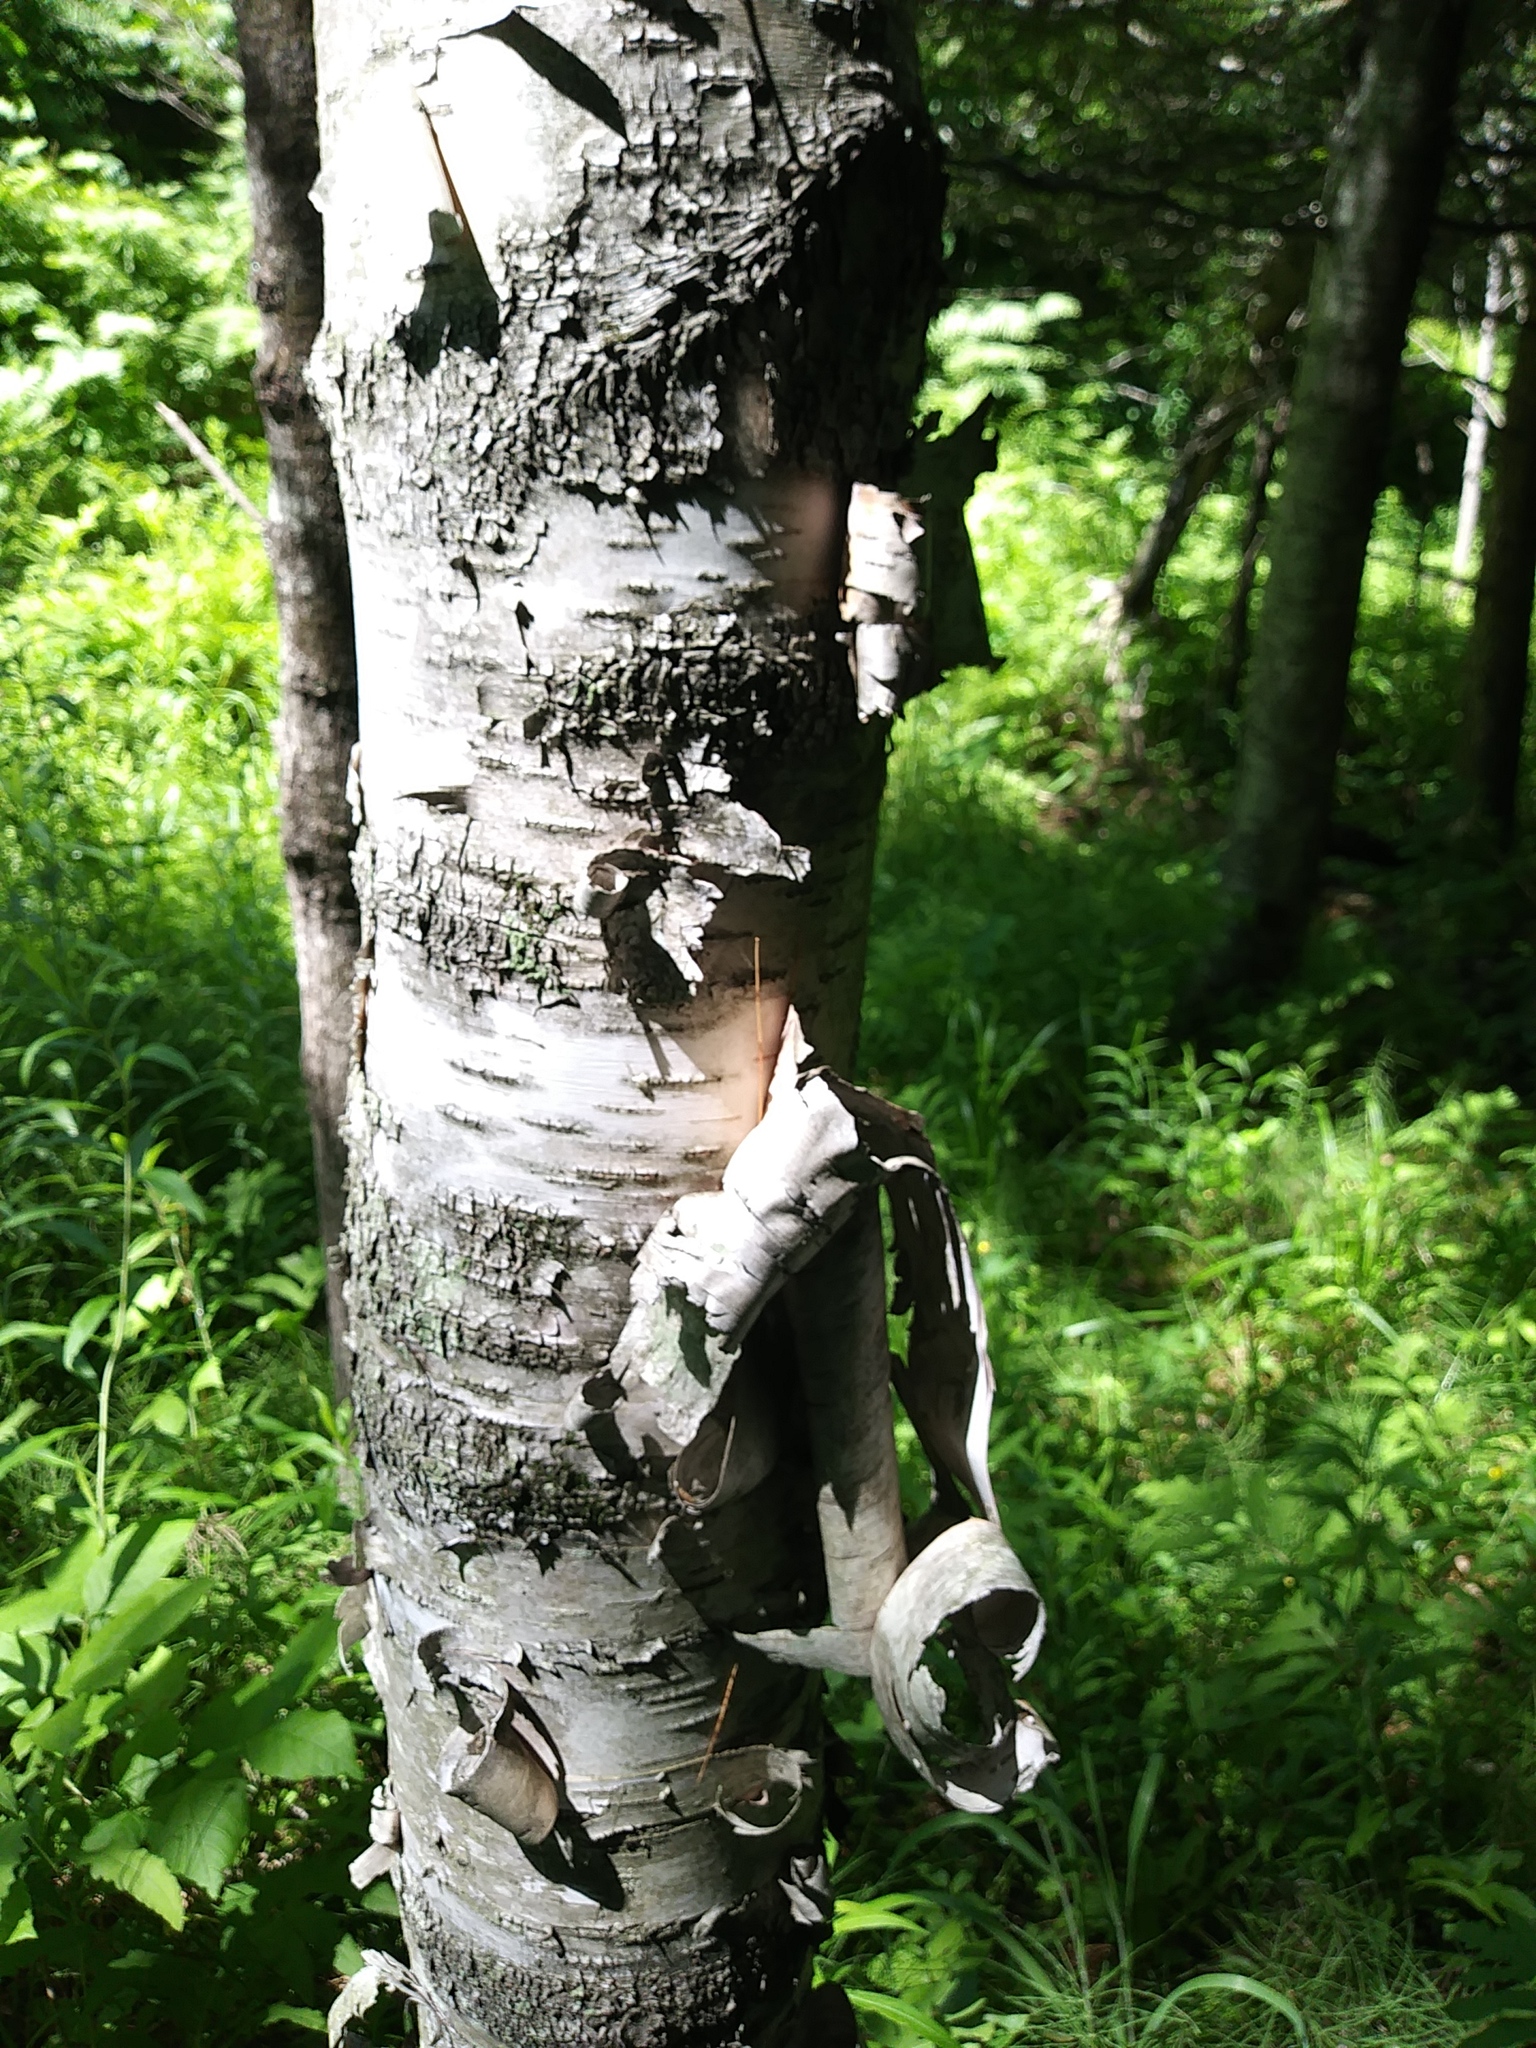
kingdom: Plantae
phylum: Tracheophyta
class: Magnoliopsida
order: Fagales
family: Betulaceae
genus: Betula
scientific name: Betula papyrifera
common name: Paper birch
